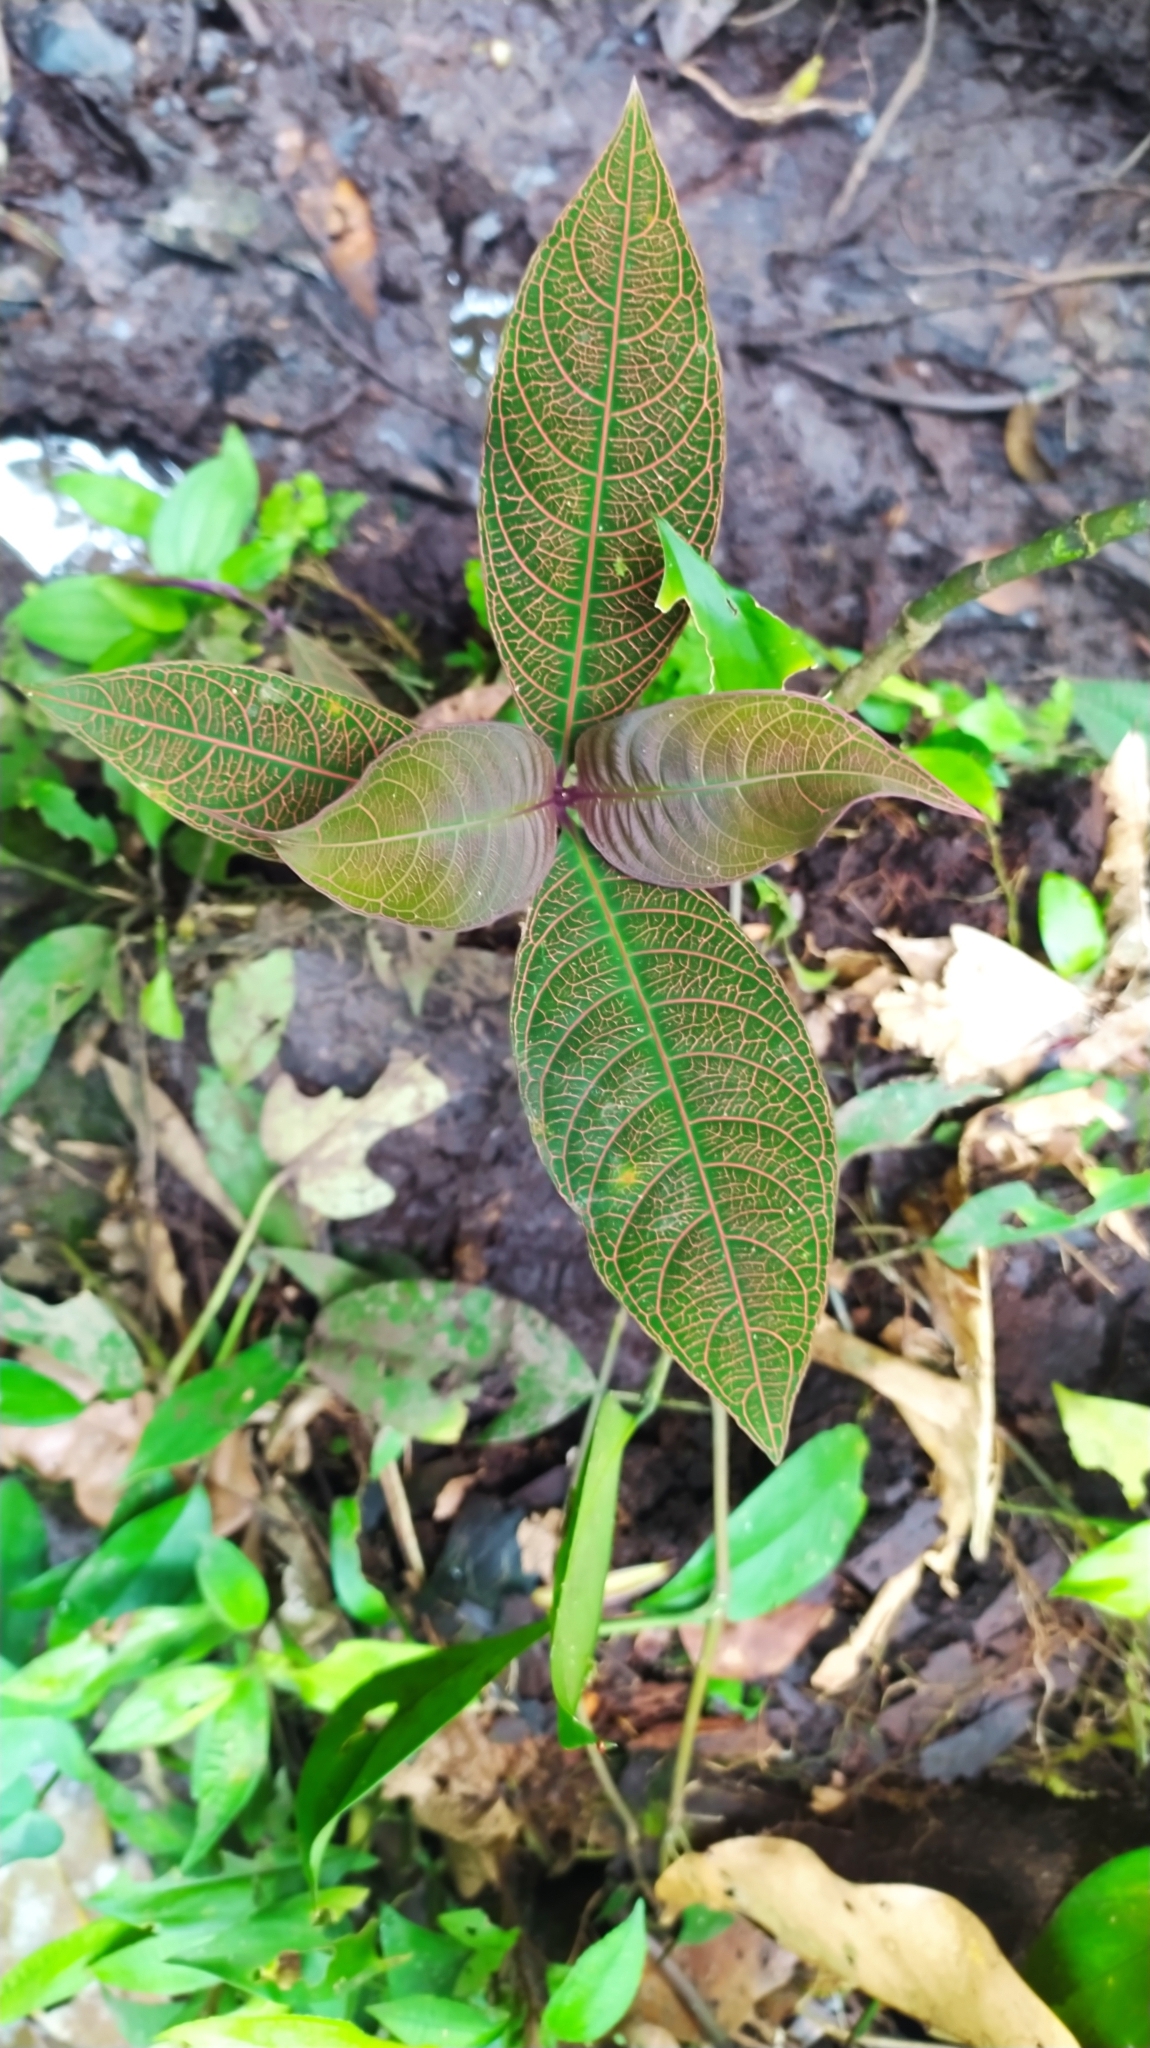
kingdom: Plantae
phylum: Tracheophyta
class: Magnoliopsida
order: Gentianales
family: Rubiaceae
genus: Palicourea
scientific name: Palicourea microbotrys
